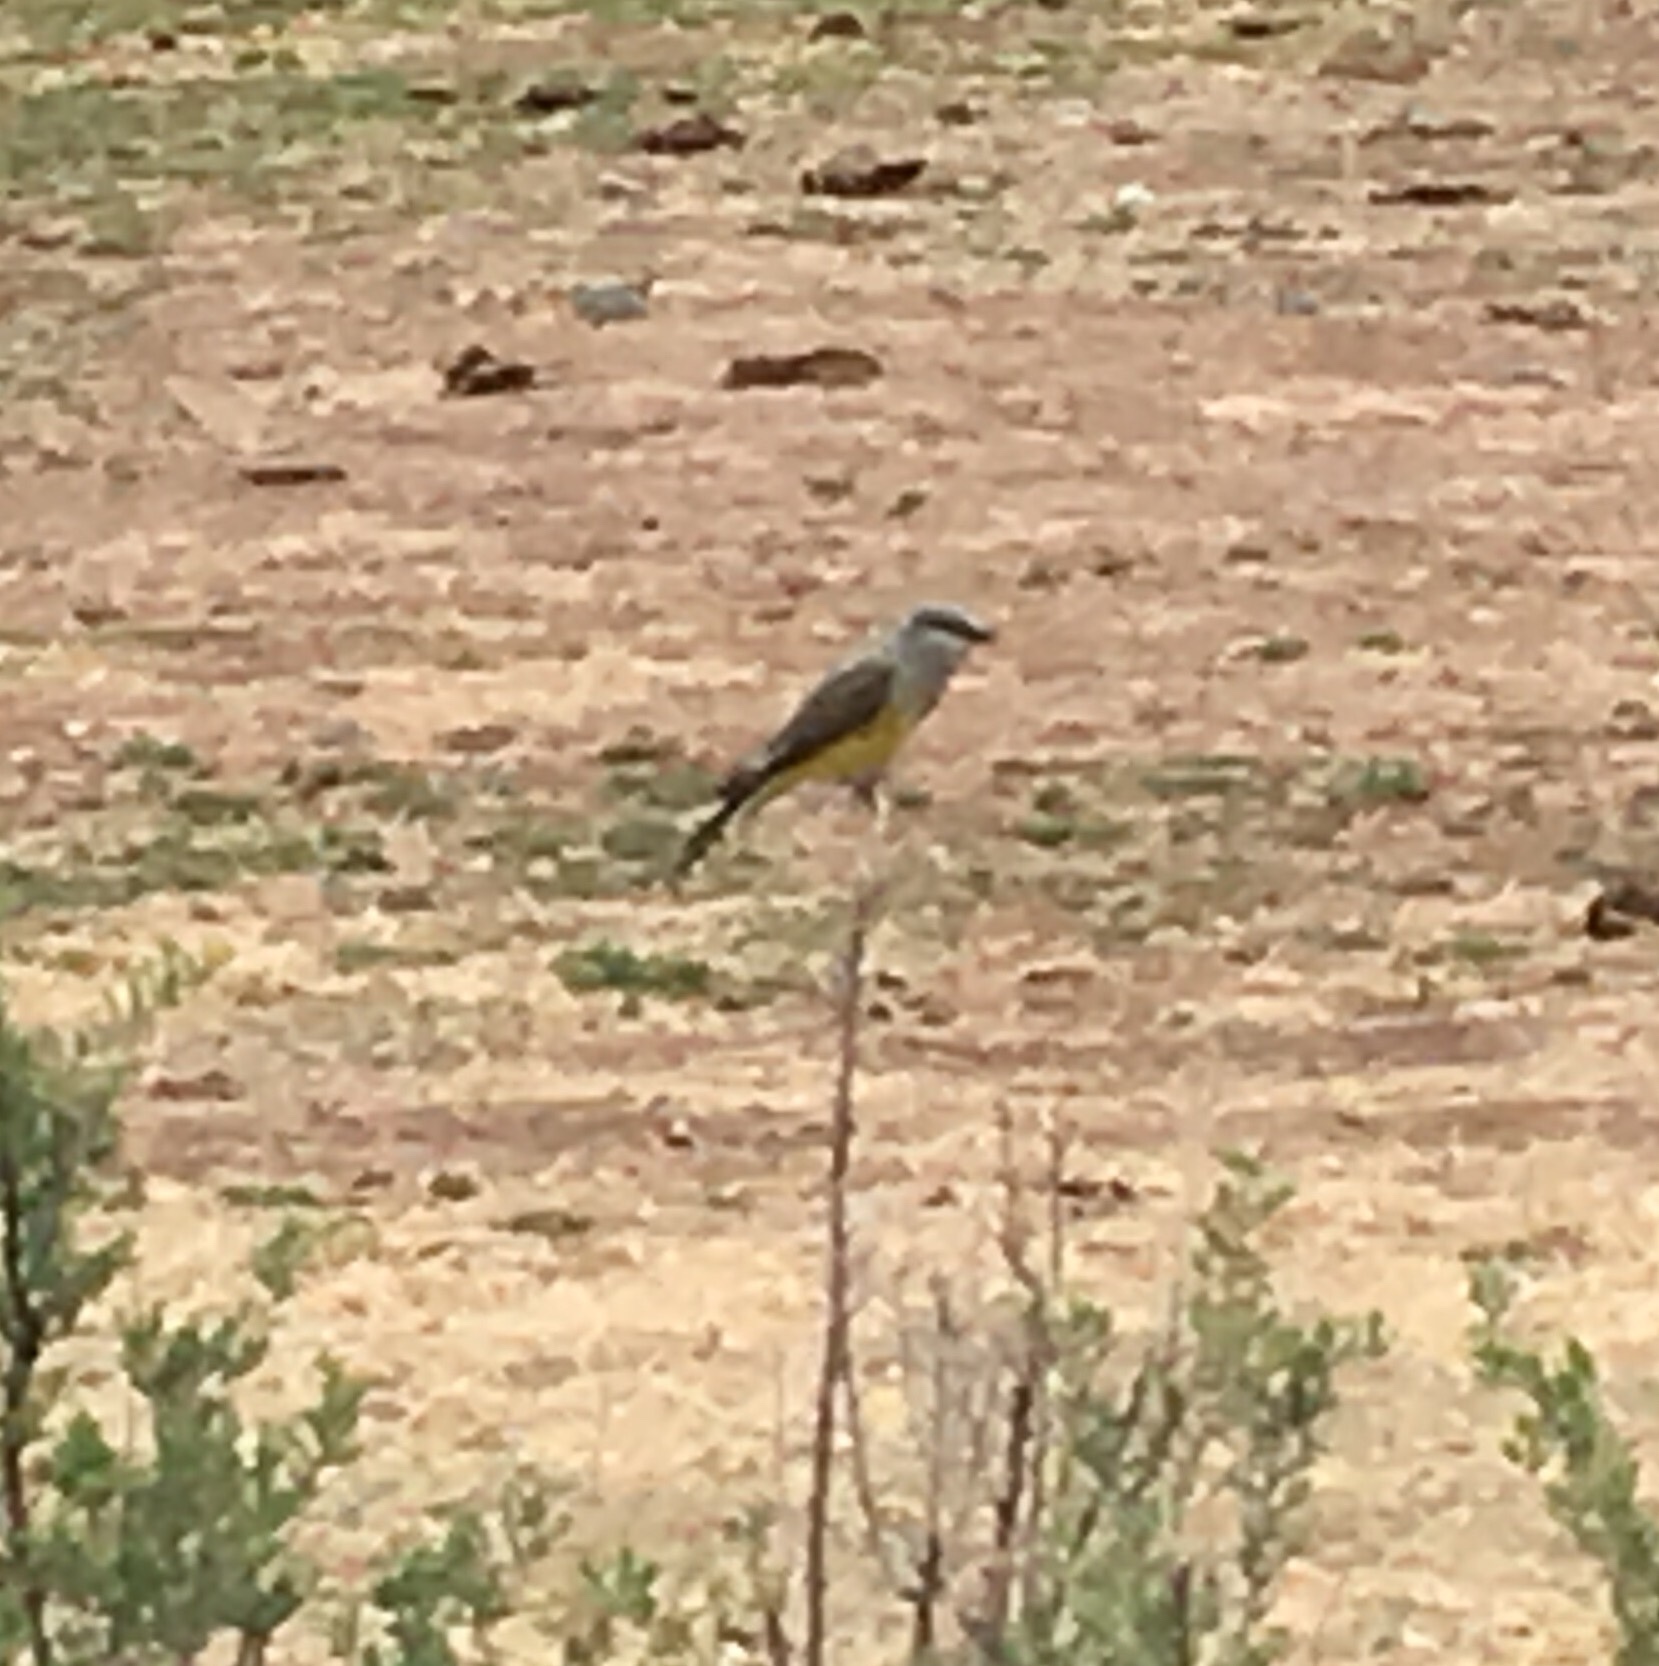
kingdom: Animalia
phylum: Chordata
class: Aves
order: Passeriformes
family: Tyrannidae
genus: Tyrannus
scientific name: Tyrannus verticalis
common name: Western kingbird
